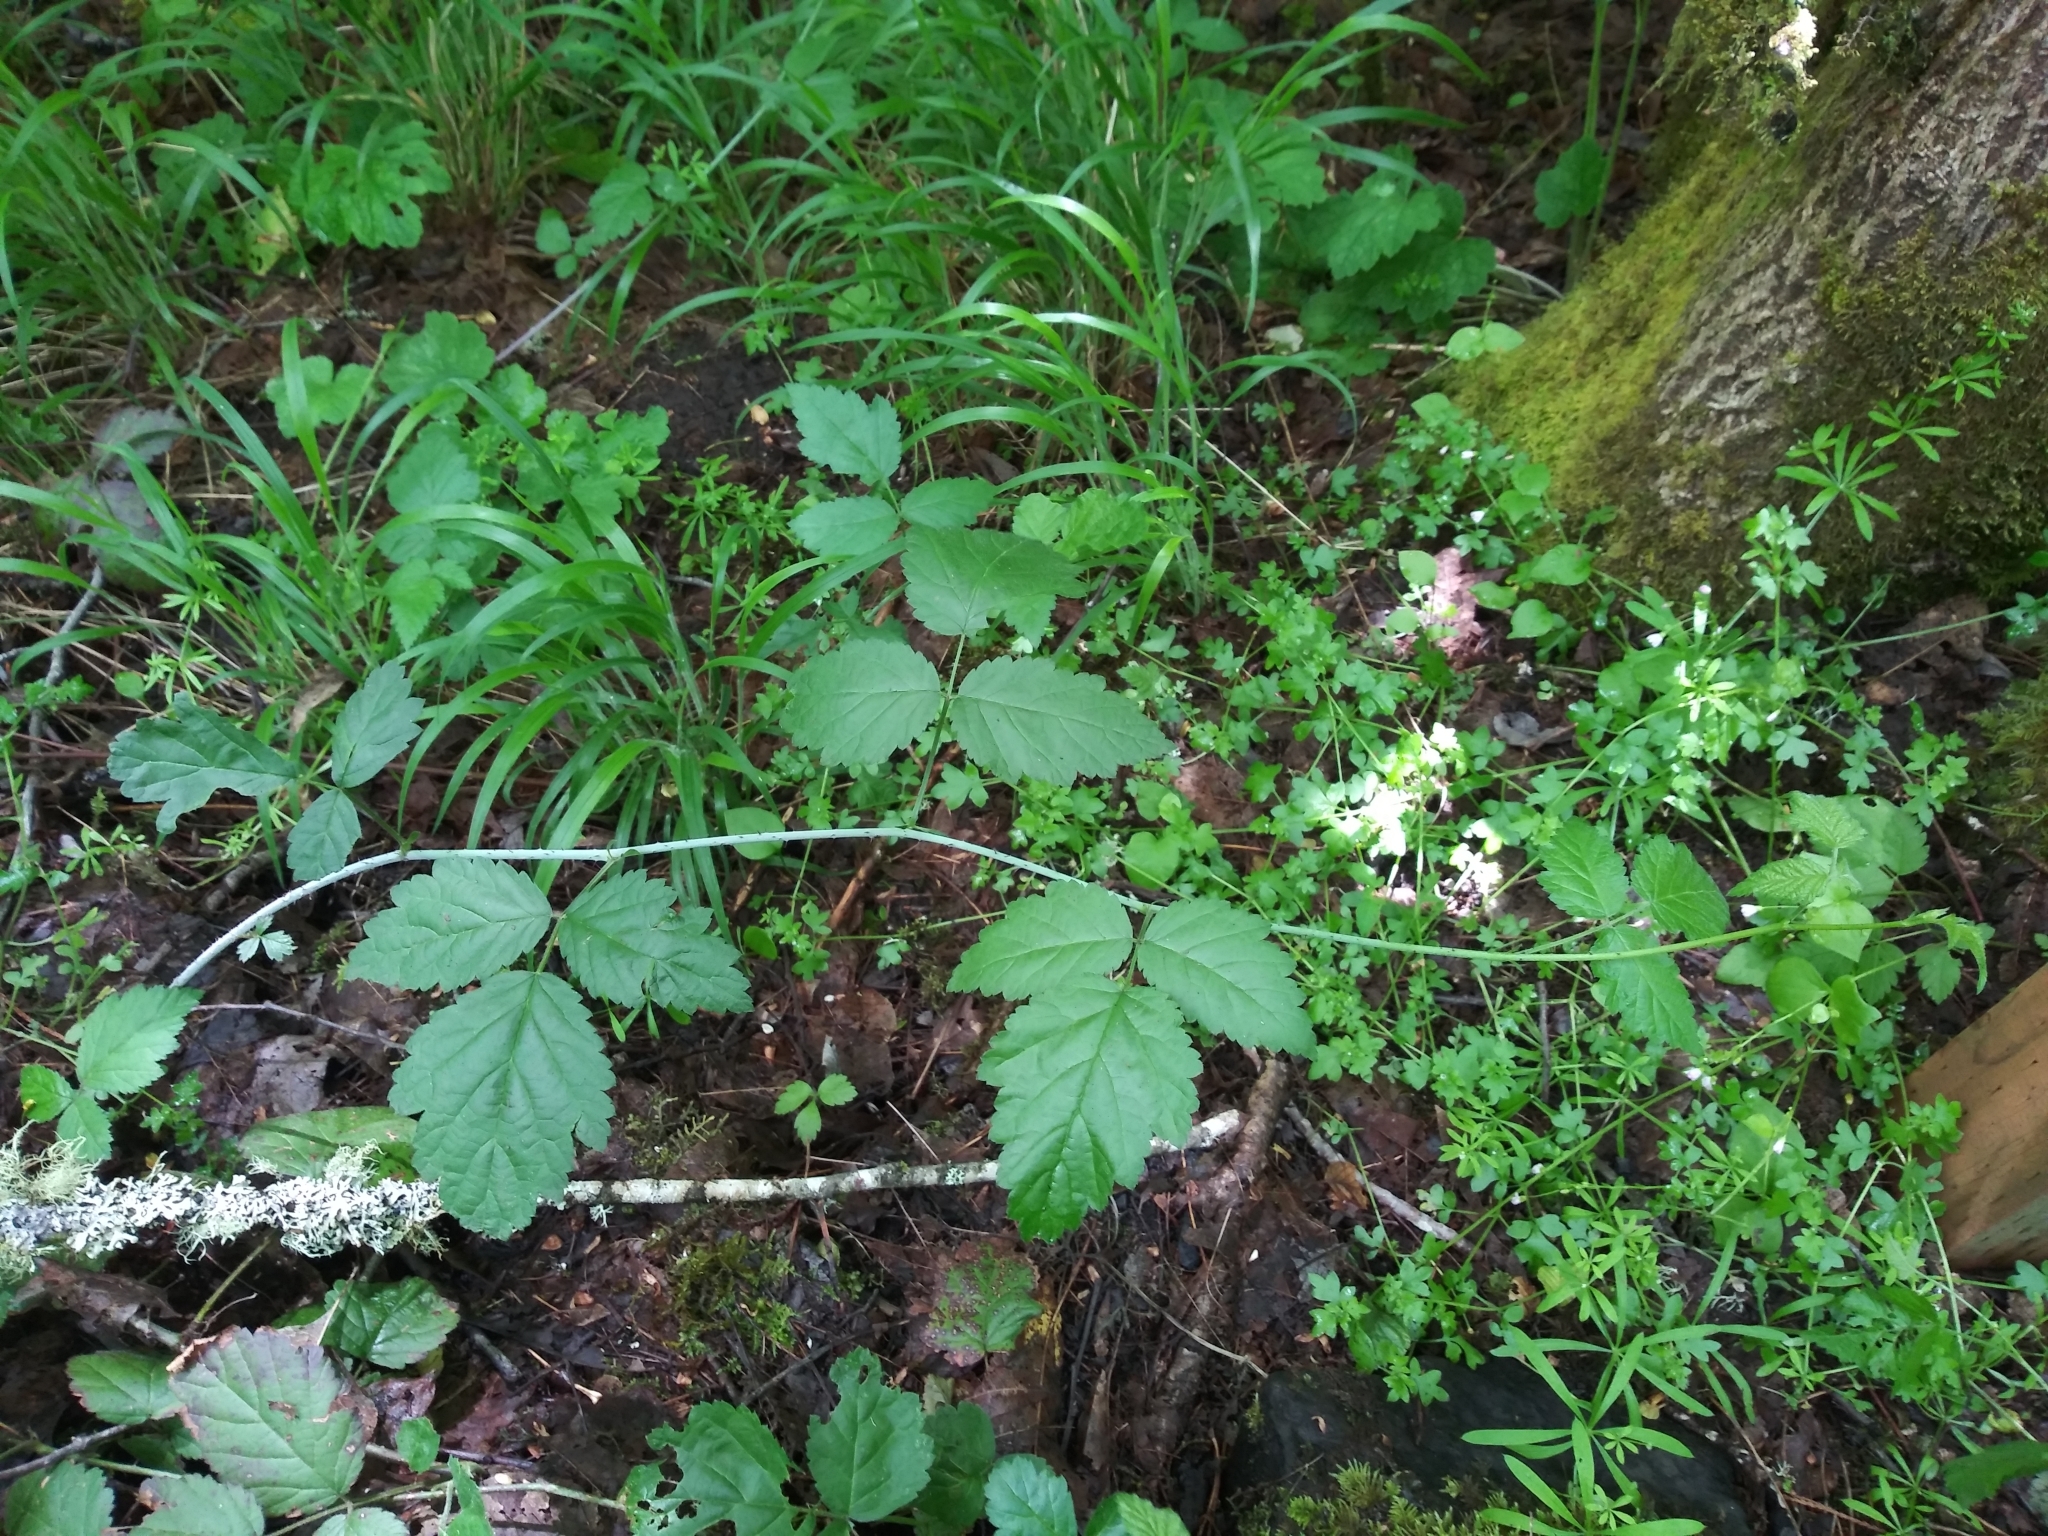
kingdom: Plantae
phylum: Tracheophyta
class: Magnoliopsida
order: Rosales
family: Rosaceae
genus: Rubus
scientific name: Rubus ursinus
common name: Pacific blackberry
